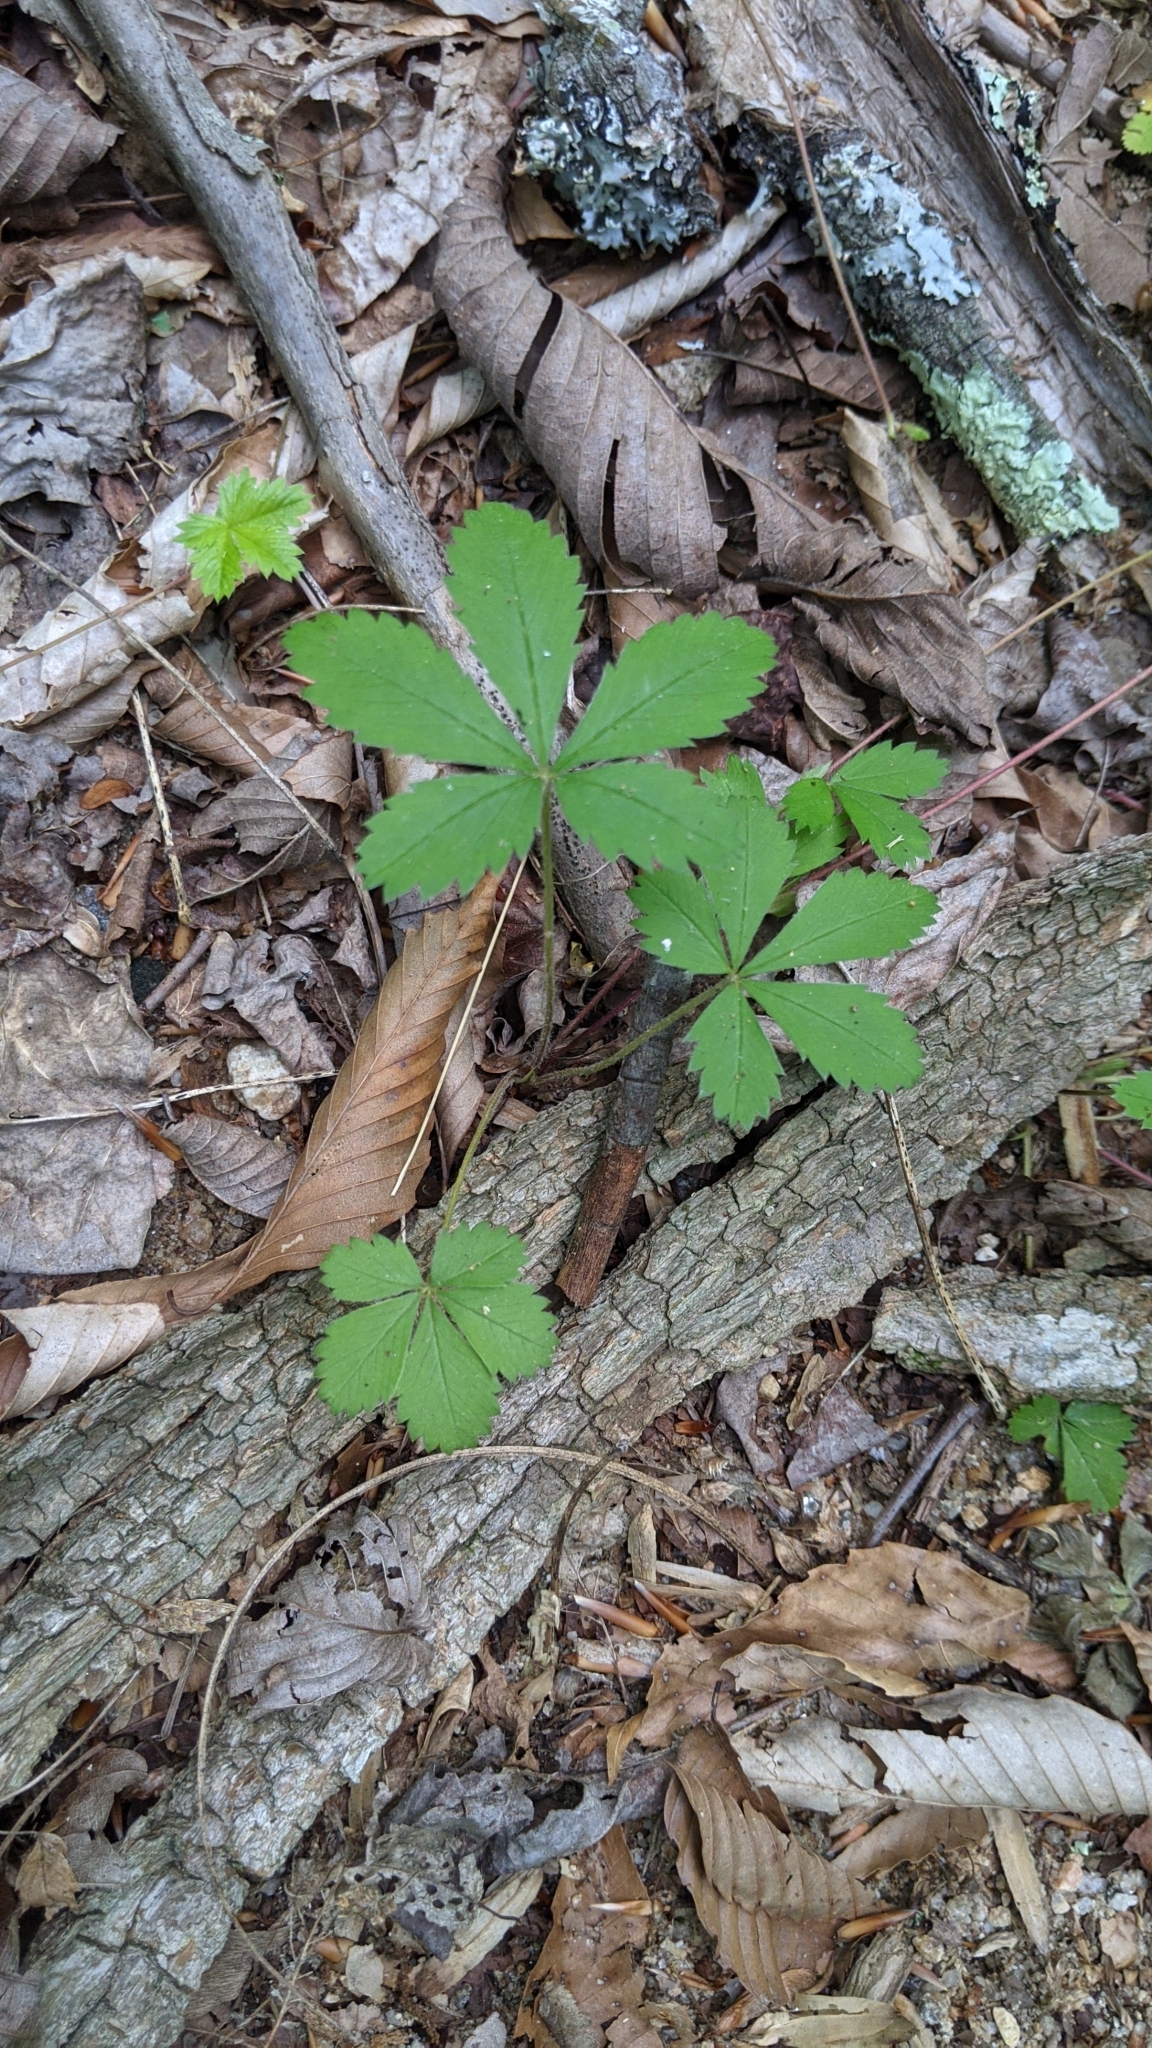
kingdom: Plantae
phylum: Tracheophyta
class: Magnoliopsida
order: Rosales
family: Rosaceae
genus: Potentilla
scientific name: Potentilla simplex
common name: Old field cinquefoil
